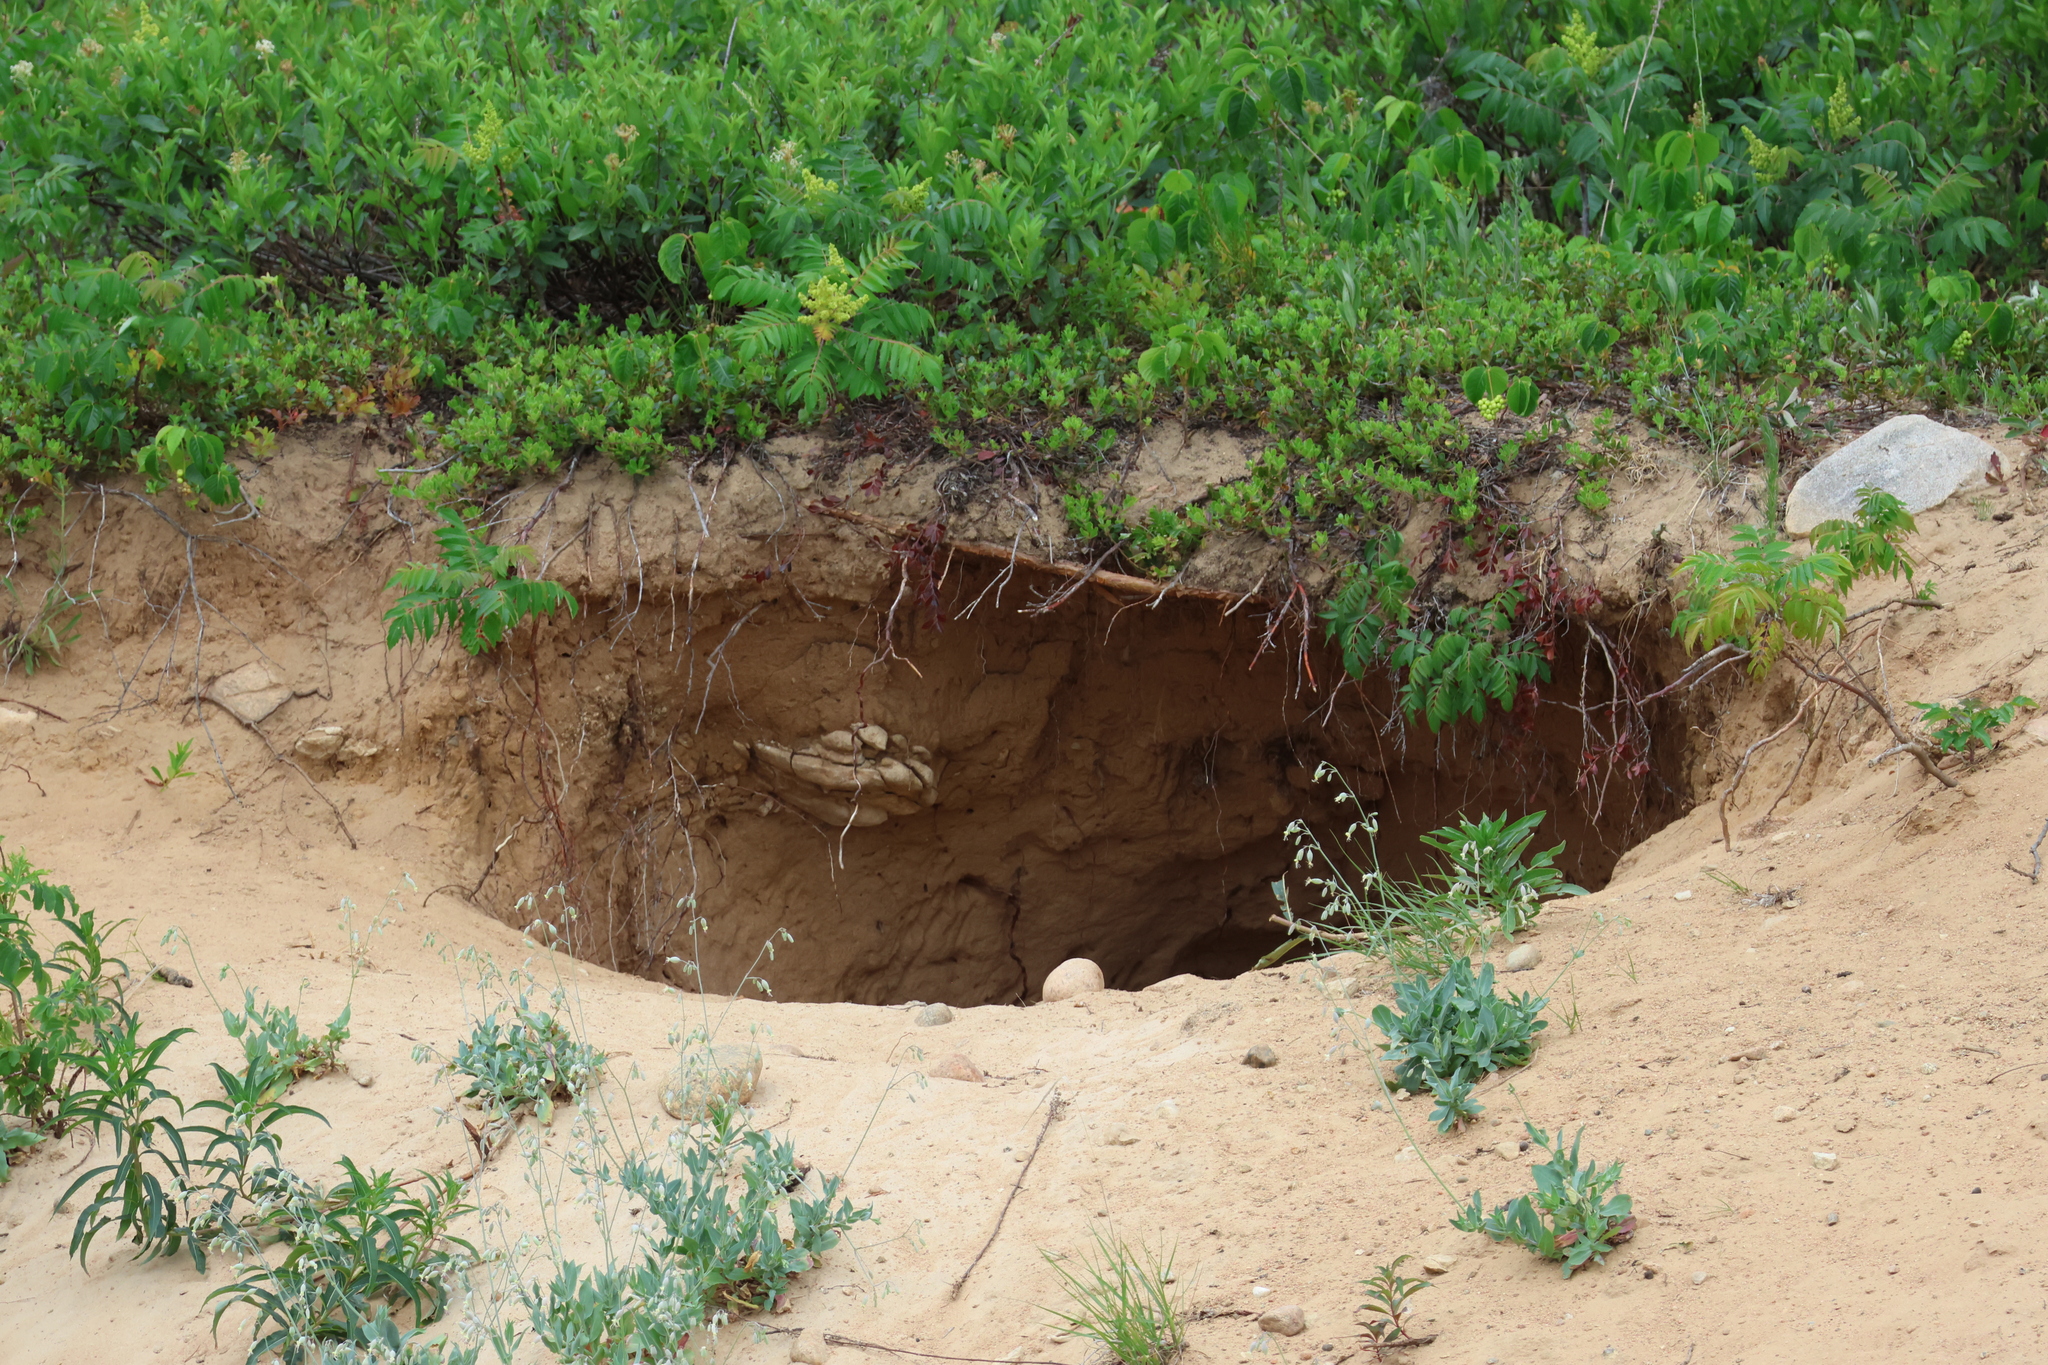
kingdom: Animalia
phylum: Chordata
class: Mammalia
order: Carnivora
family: Ursidae
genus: Ursus
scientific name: Ursus americanus
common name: American black bear
